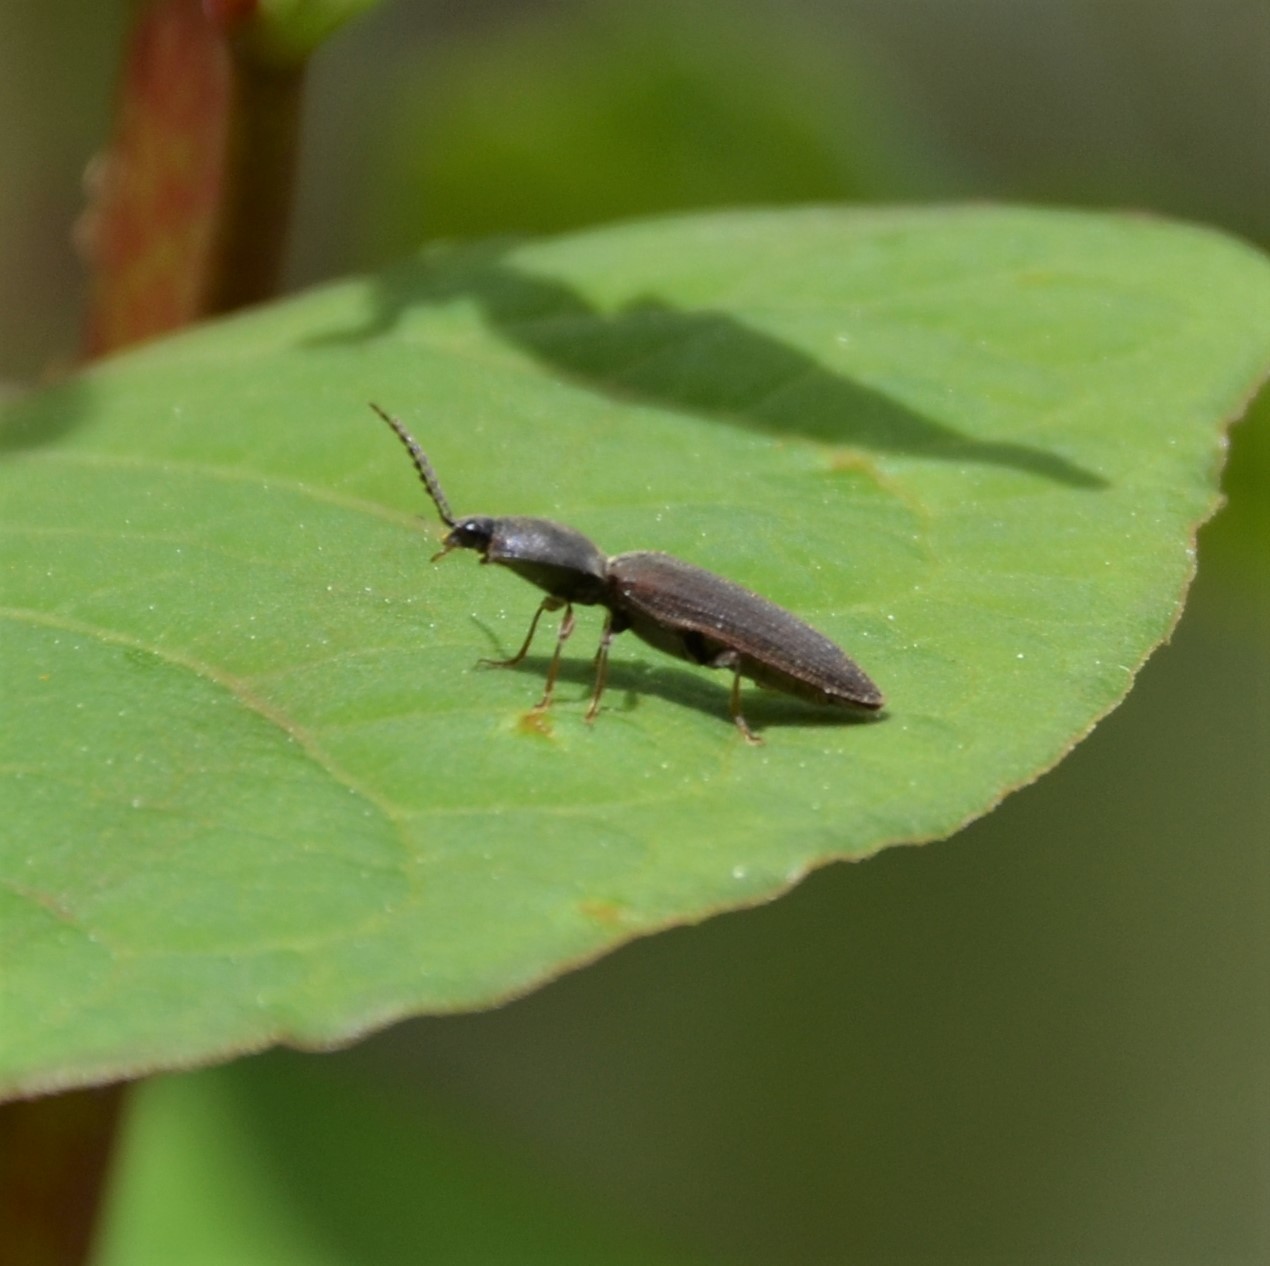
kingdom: Animalia
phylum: Arthropoda
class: Insecta
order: Coleoptera
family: Elateridae
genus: Athous
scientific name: Athous haemorrhoidalis
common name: Red-brown click beetle
